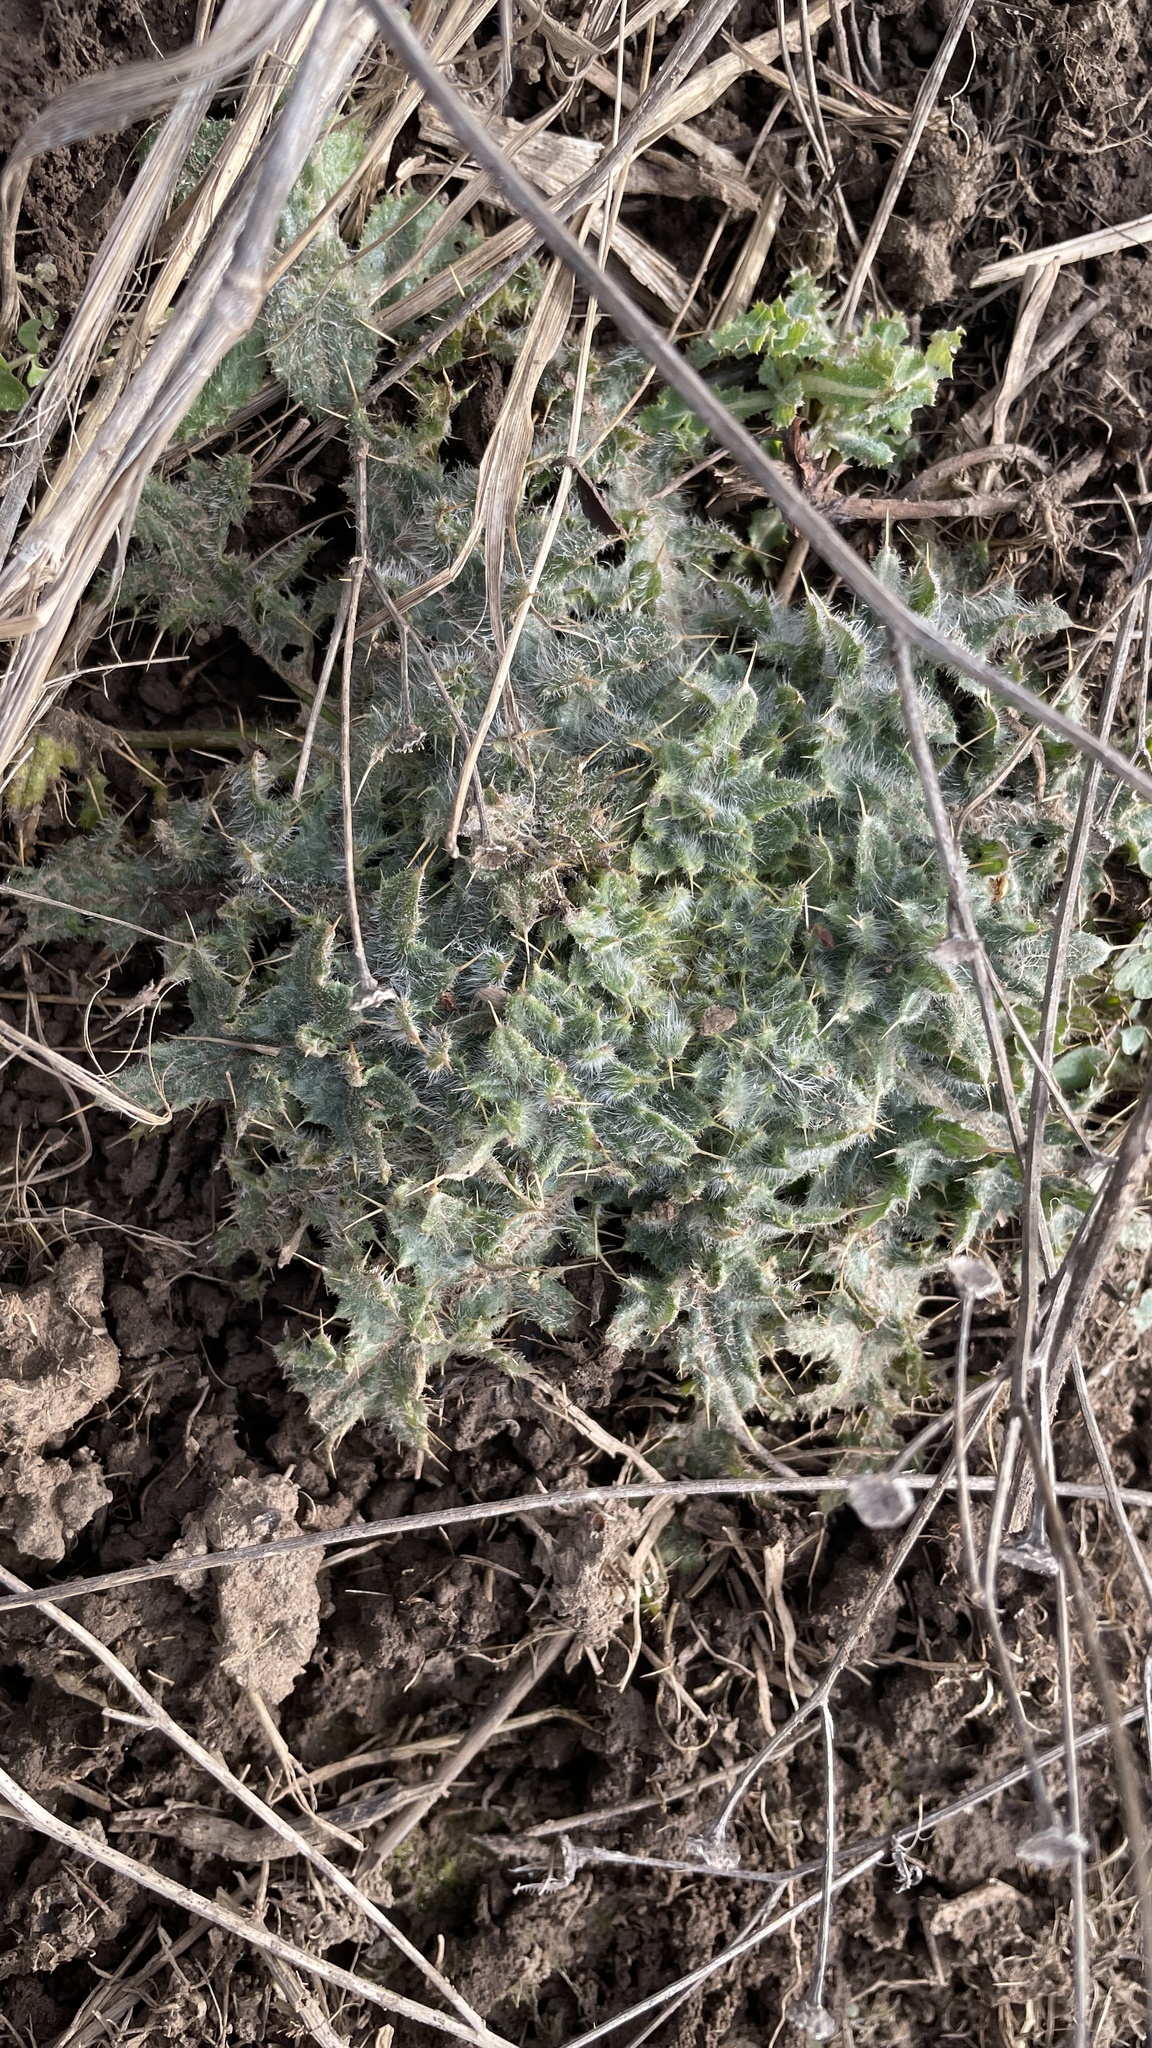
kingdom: Plantae
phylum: Tracheophyta
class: Magnoliopsida
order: Asterales
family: Asteraceae
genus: Cirsium
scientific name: Cirsium vulgare
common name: Bull thistle
